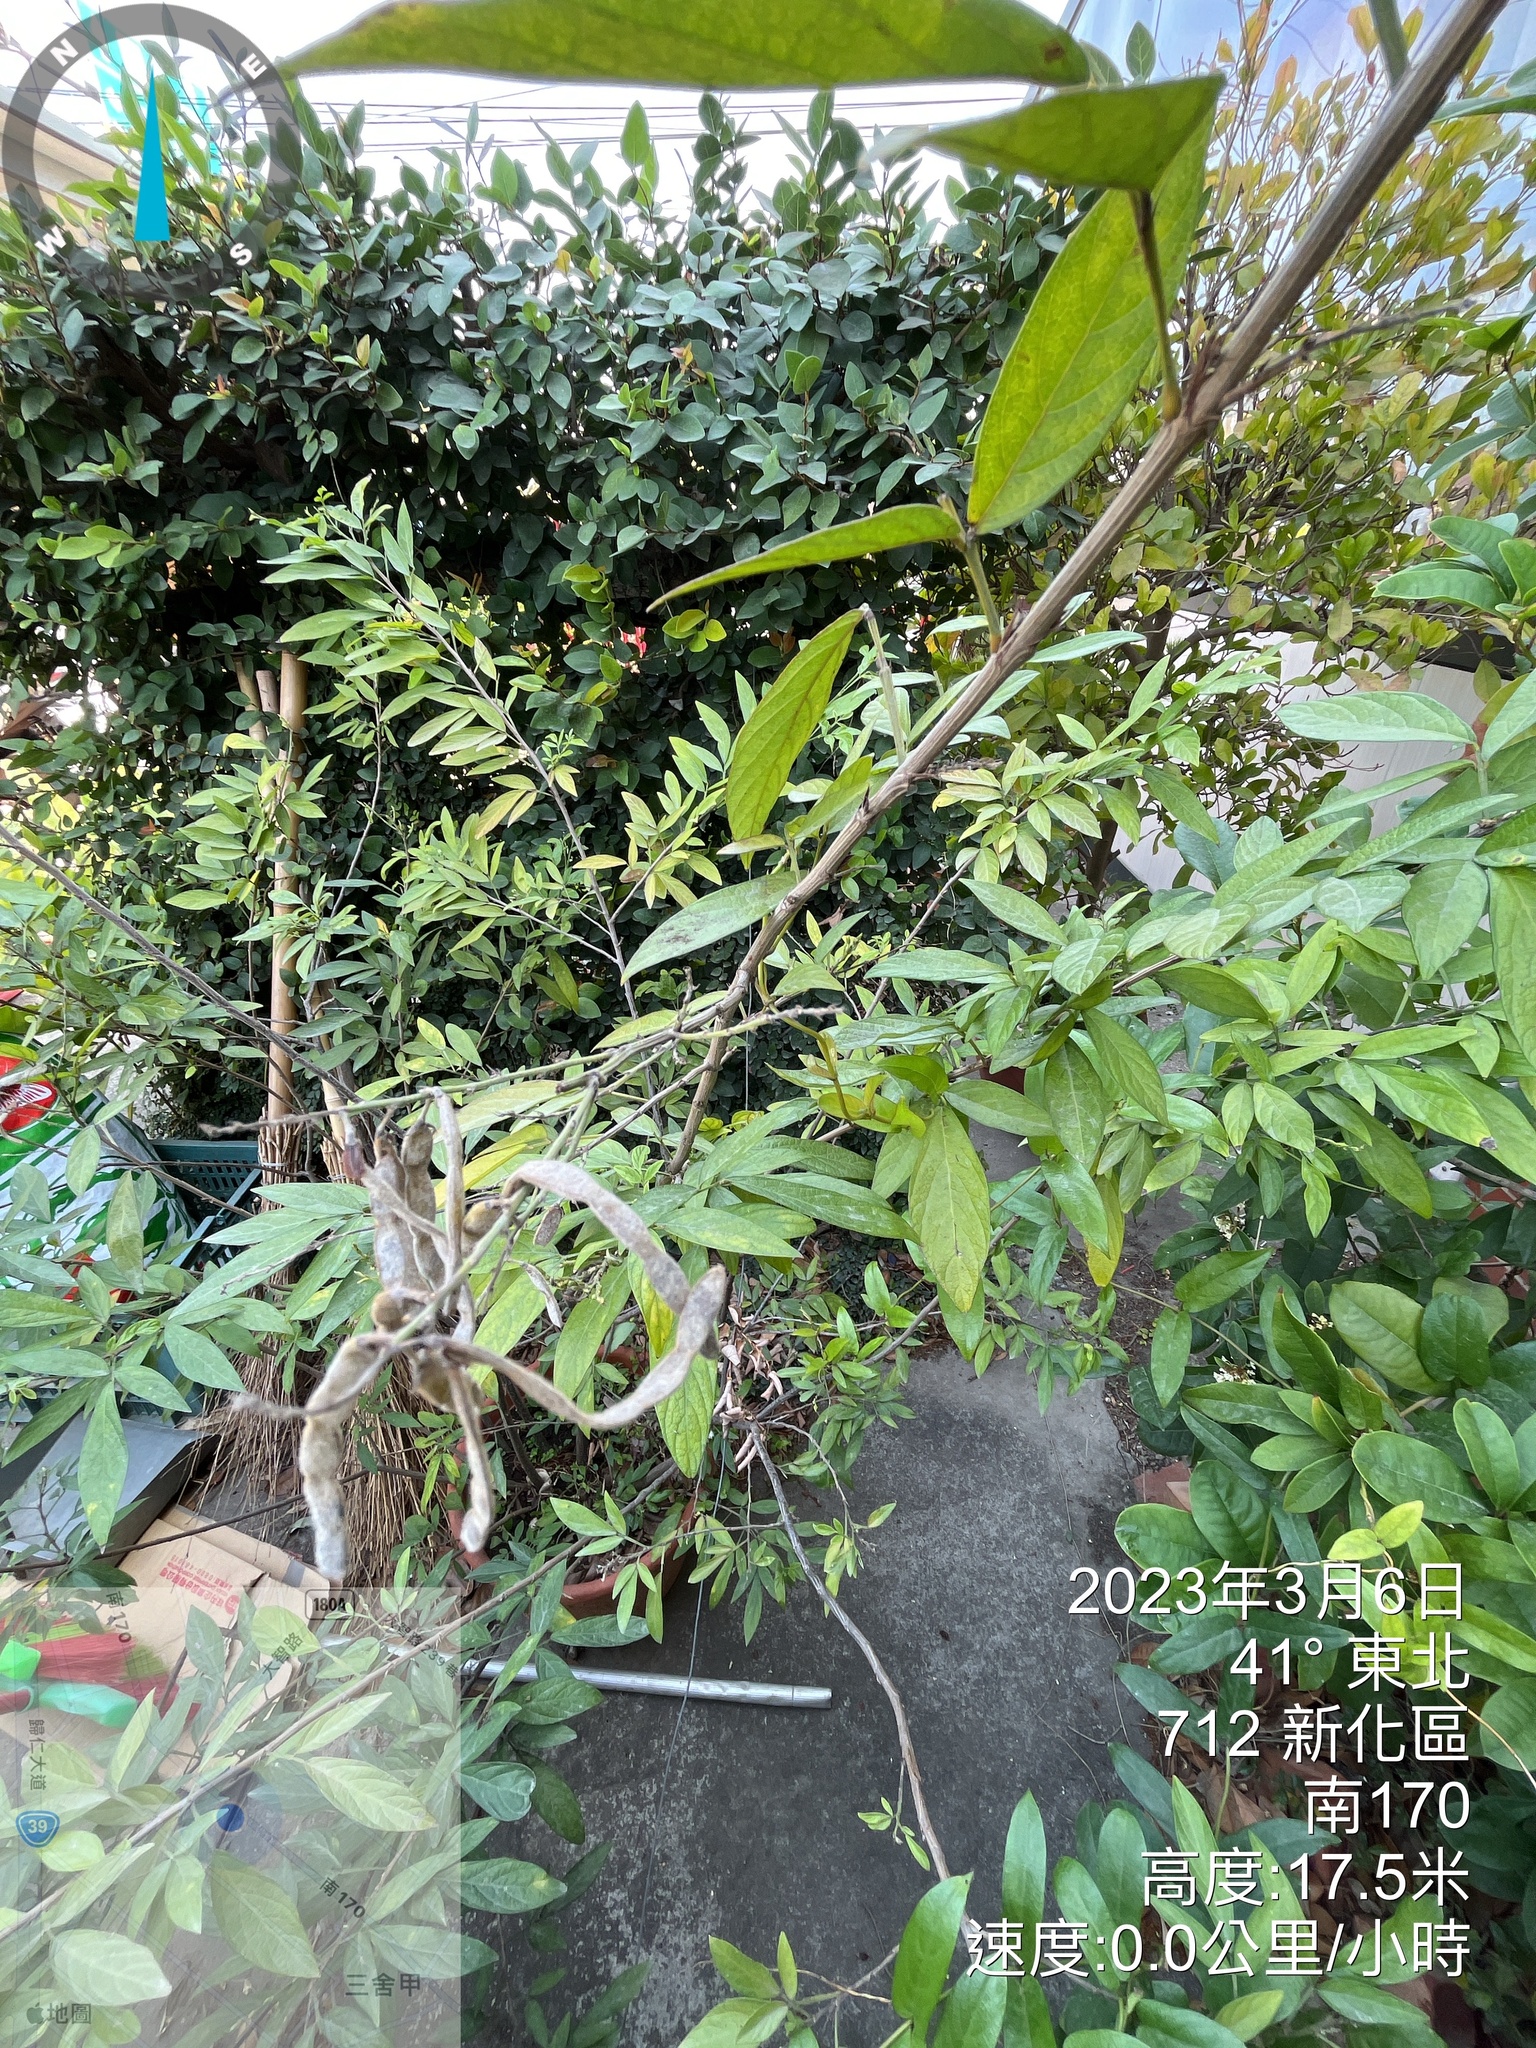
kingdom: Plantae
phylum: Tracheophyta
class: Magnoliopsida
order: Fabales
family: Fabaceae
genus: Ohwia
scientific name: Ohwia caudata
